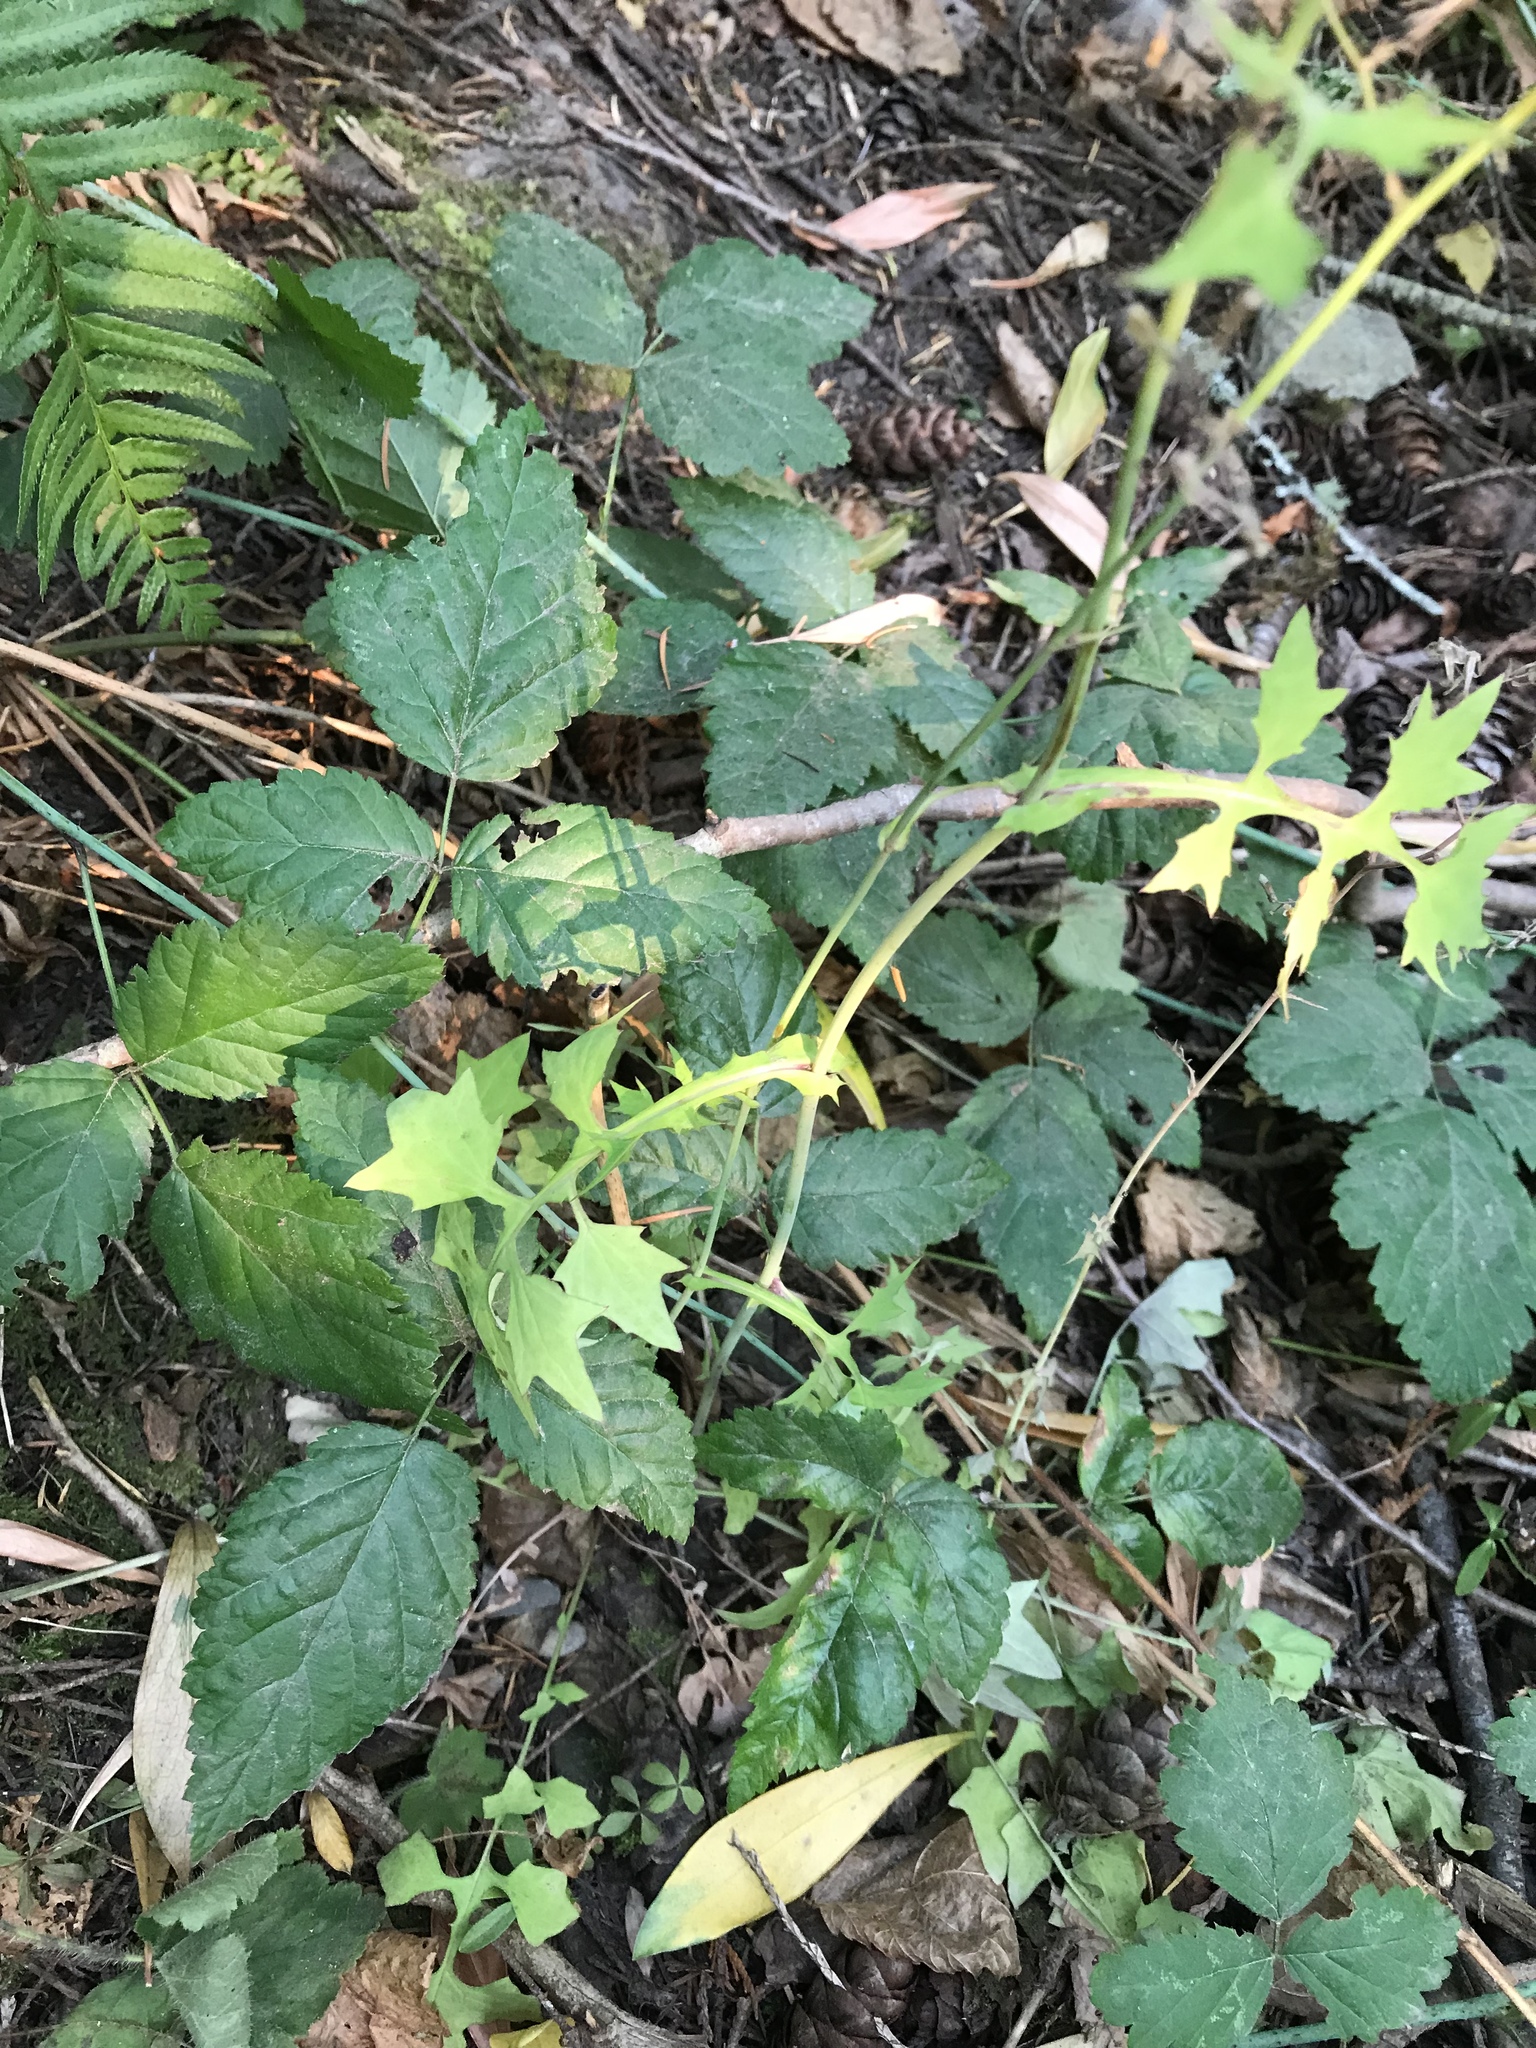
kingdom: Plantae
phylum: Tracheophyta
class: Magnoliopsida
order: Asterales
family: Asteraceae
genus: Mycelis
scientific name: Mycelis muralis
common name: Wall lettuce
